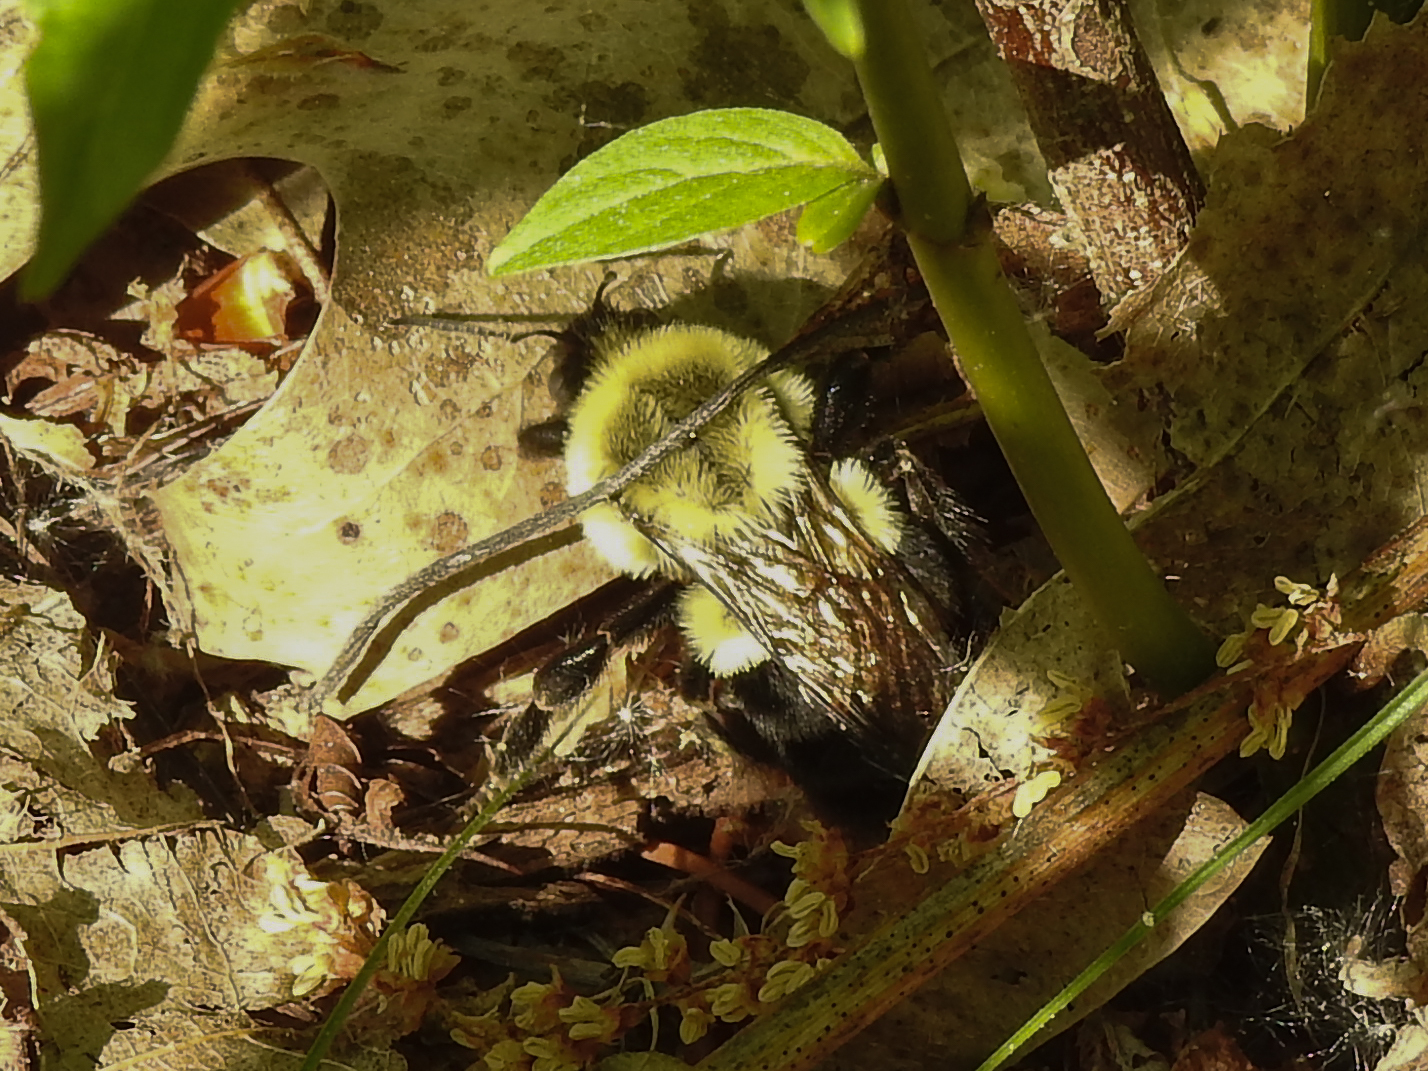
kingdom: Animalia
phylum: Arthropoda
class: Insecta
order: Hymenoptera
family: Apidae
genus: Bombus
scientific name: Bombus impatiens
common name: Common eastern bumble bee
